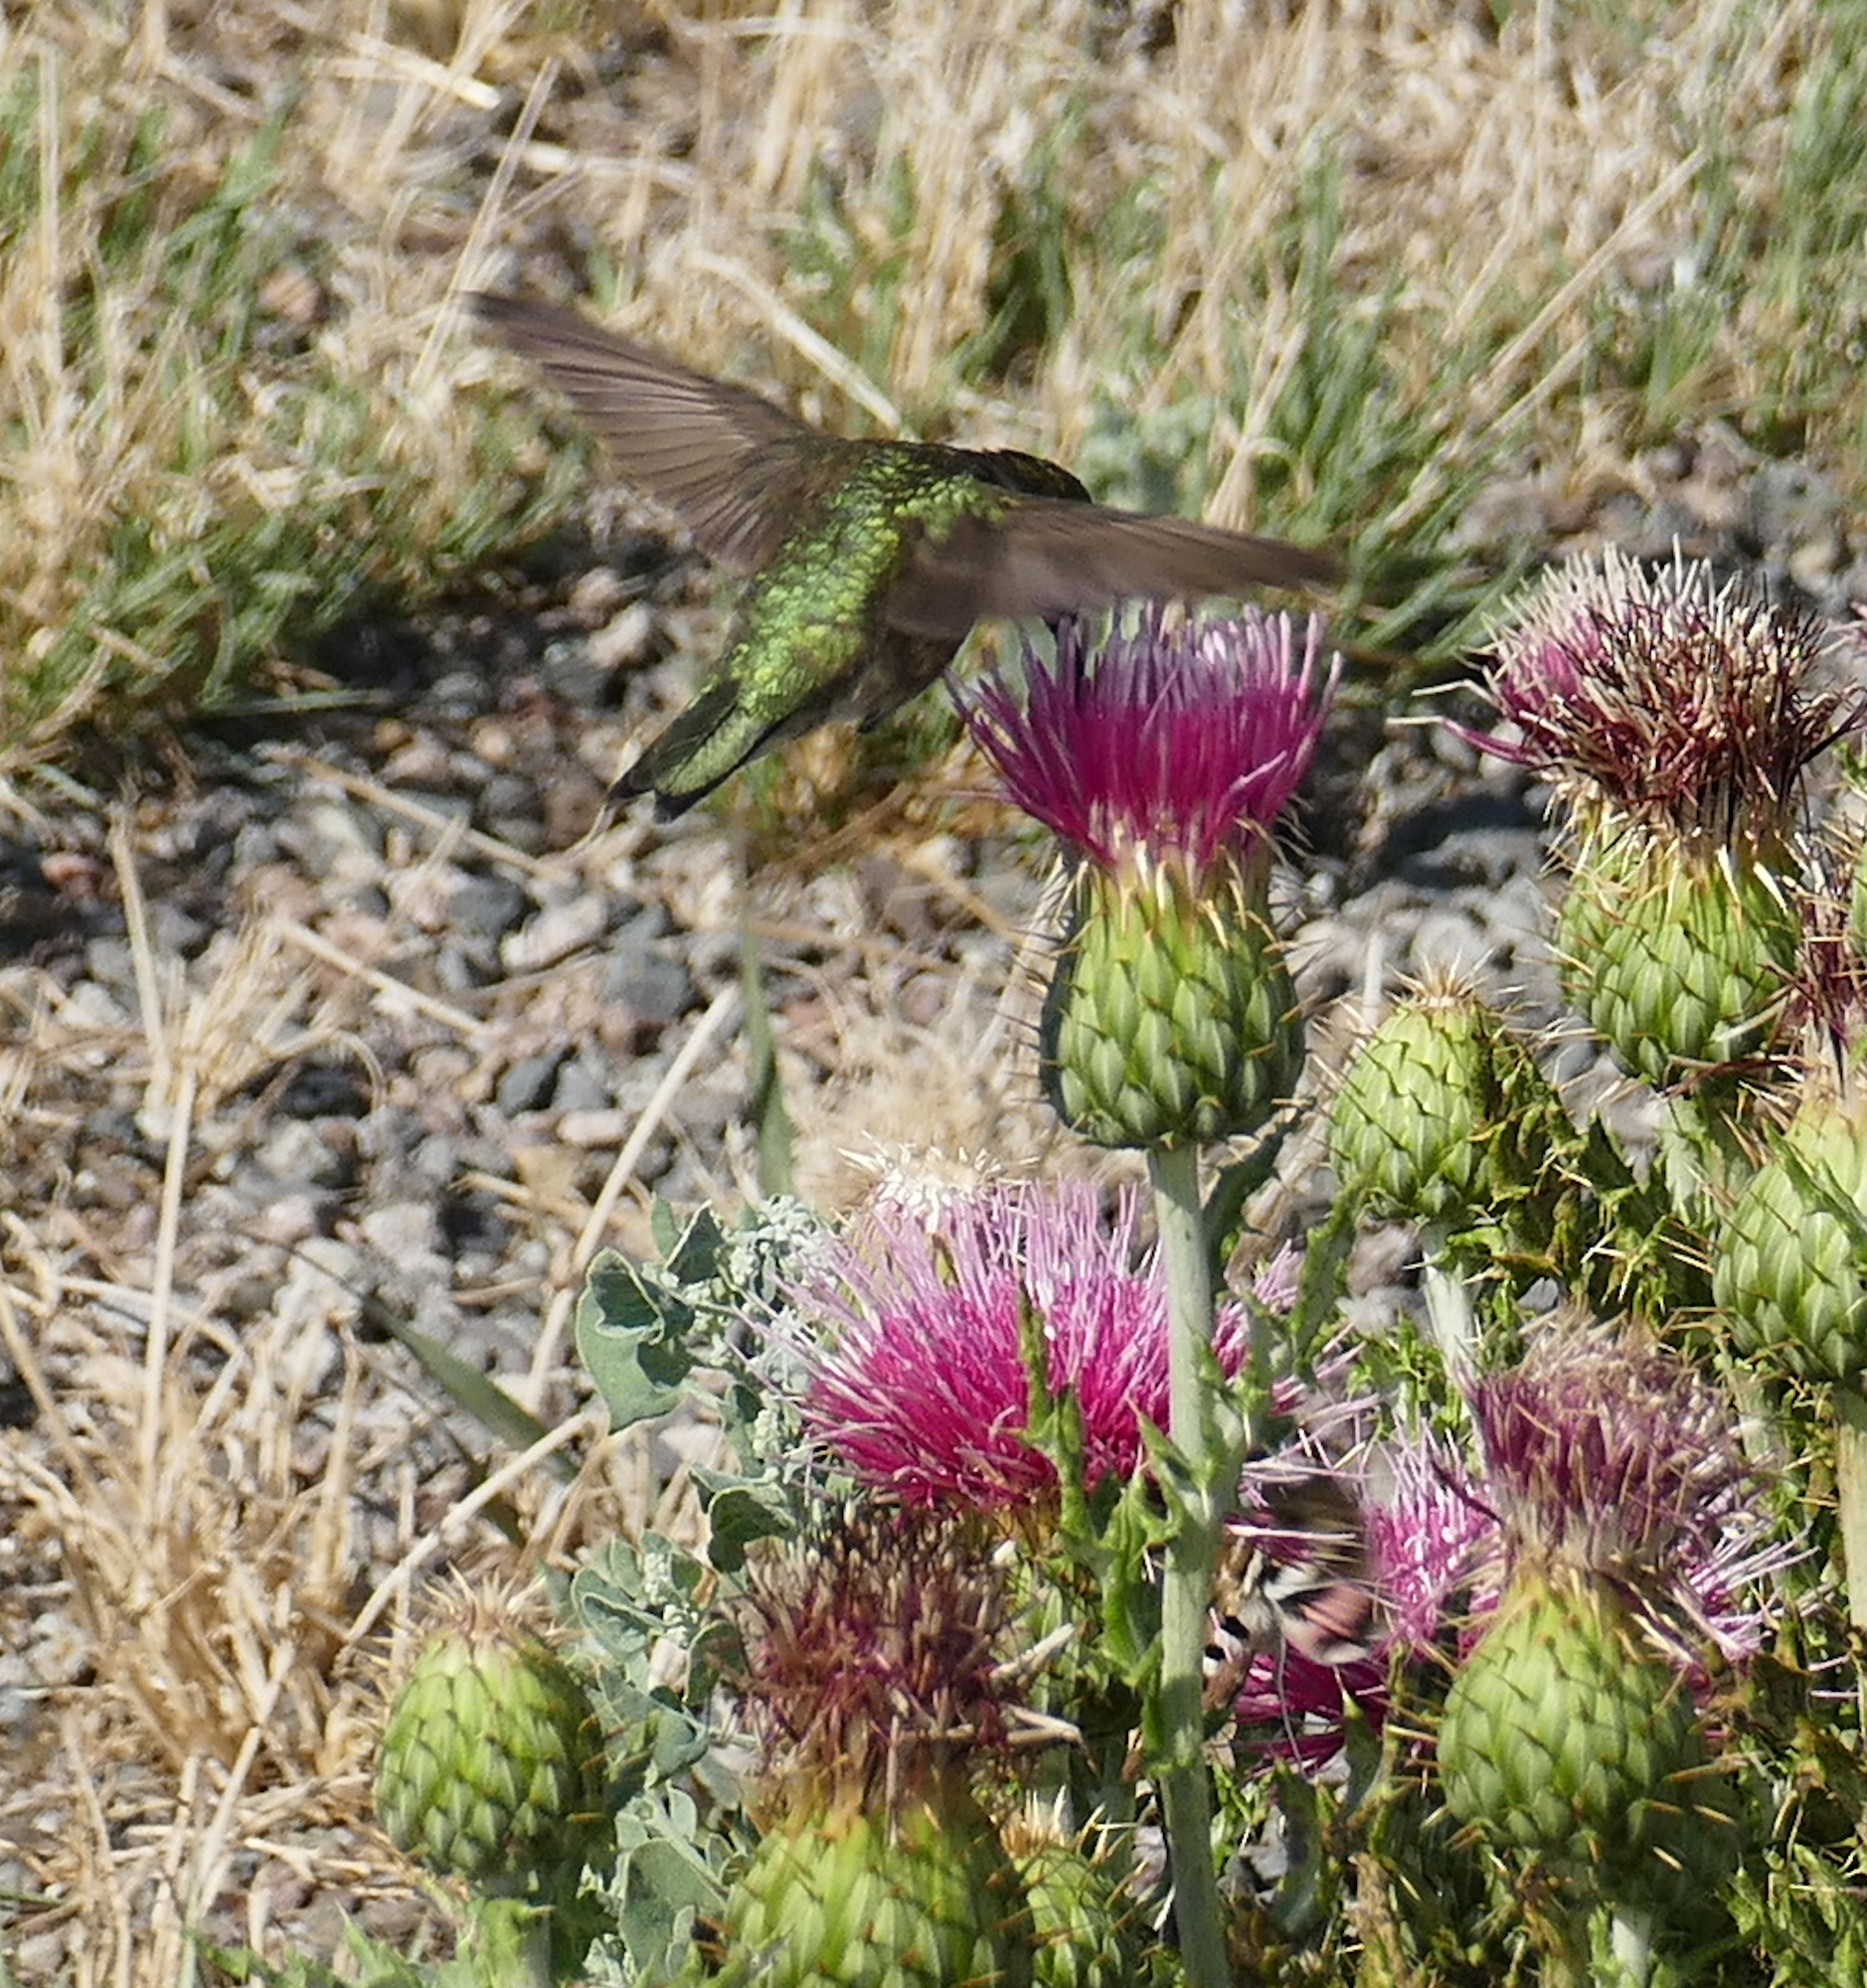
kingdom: Animalia
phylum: Chordata
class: Aves
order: Apodiformes
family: Trochilidae
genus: Archilochus
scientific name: Archilochus alexandri
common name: Black-chinned hummingbird
